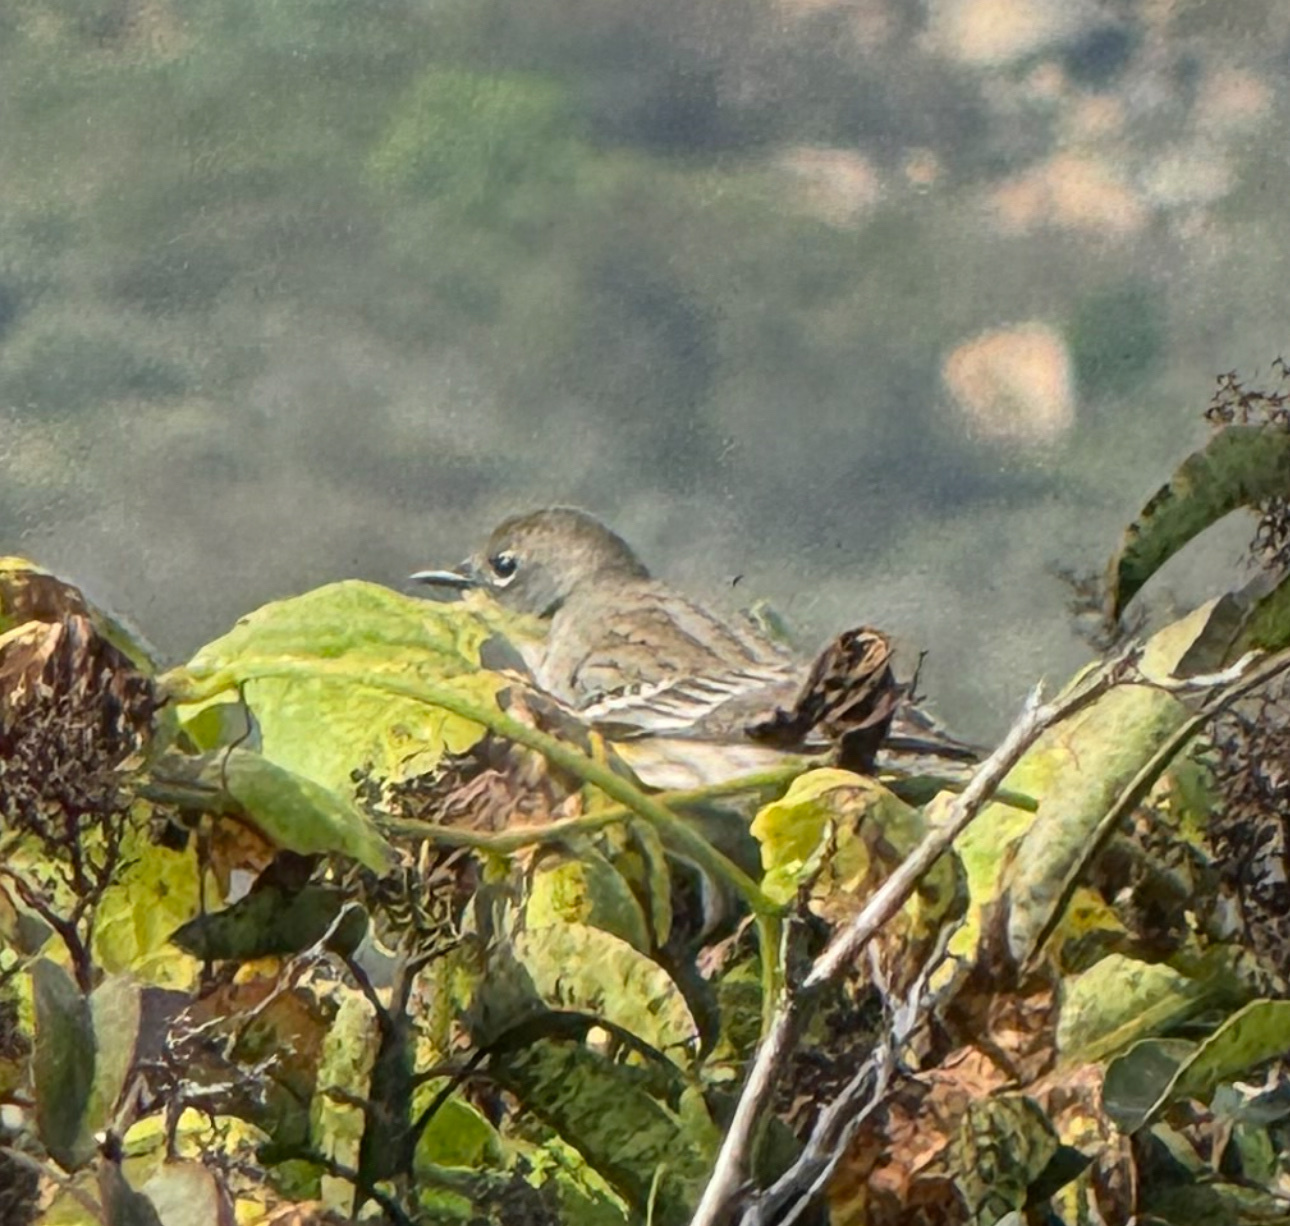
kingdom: Animalia
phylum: Chordata
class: Aves
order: Passeriformes
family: Parulidae
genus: Setophaga
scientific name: Setophaga coronata
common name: Myrtle warbler
